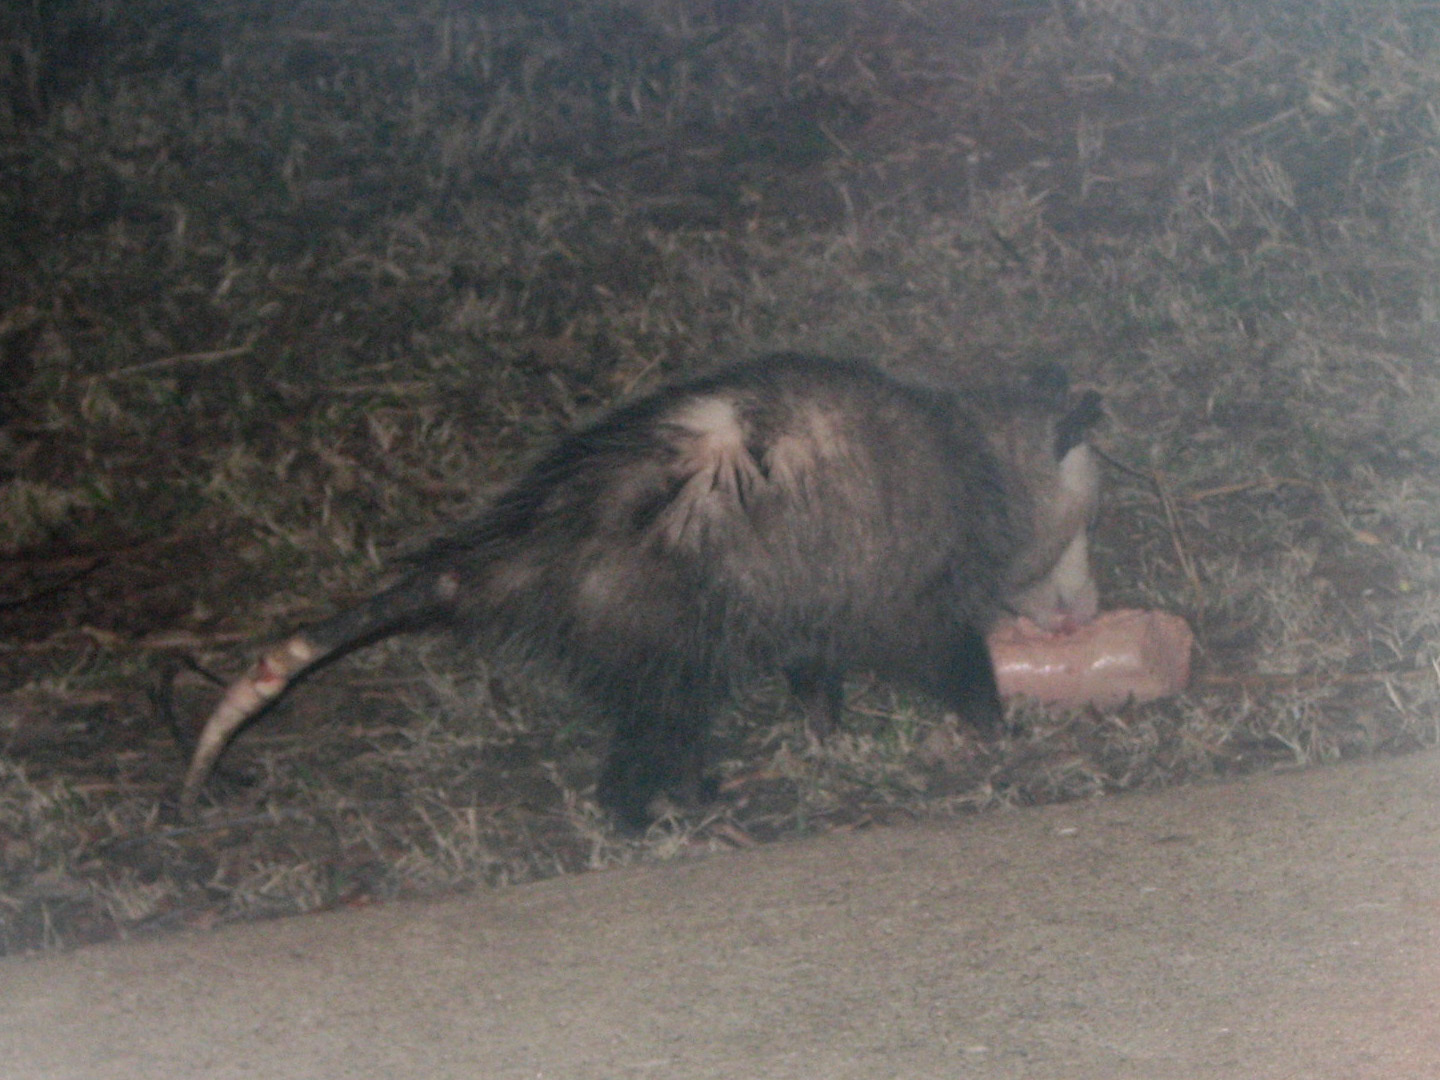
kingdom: Animalia
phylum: Chordata
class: Mammalia
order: Didelphimorphia
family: Didelphidae
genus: Didelphis
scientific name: Didelphis virginiana
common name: Virginia opossum
